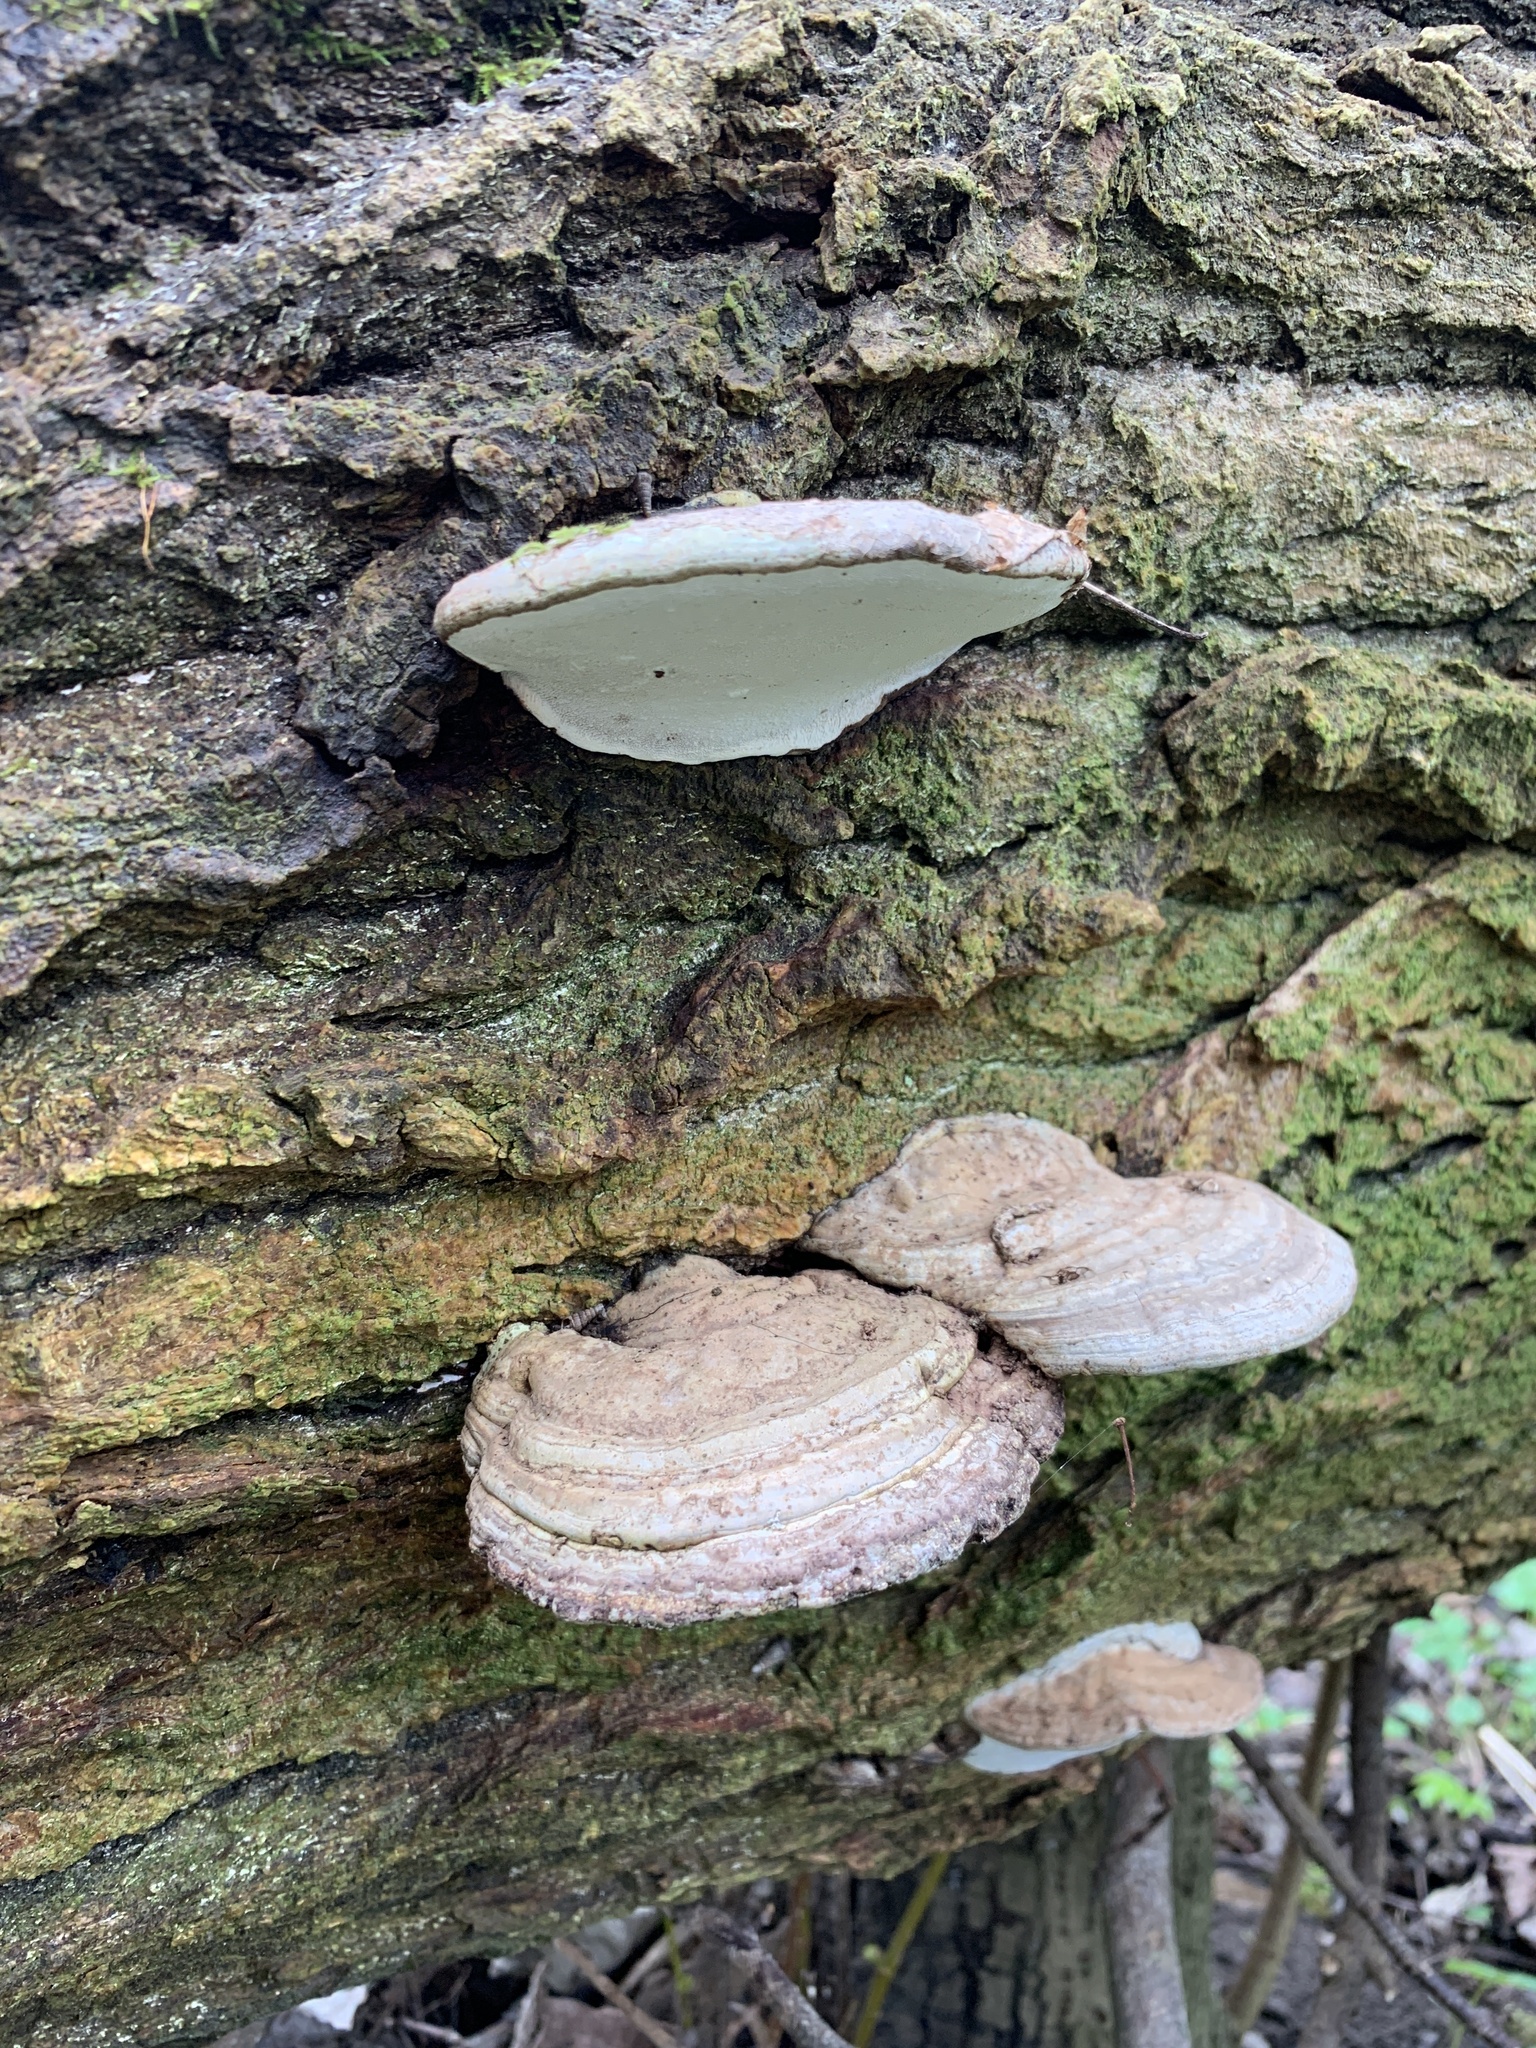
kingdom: Fungi
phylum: Basidiomycota
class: Agaricomycetes
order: Polyporales
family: Polyporaceae
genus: Ganoderma
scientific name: Ganoderma applanatum
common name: Artist's bracket
